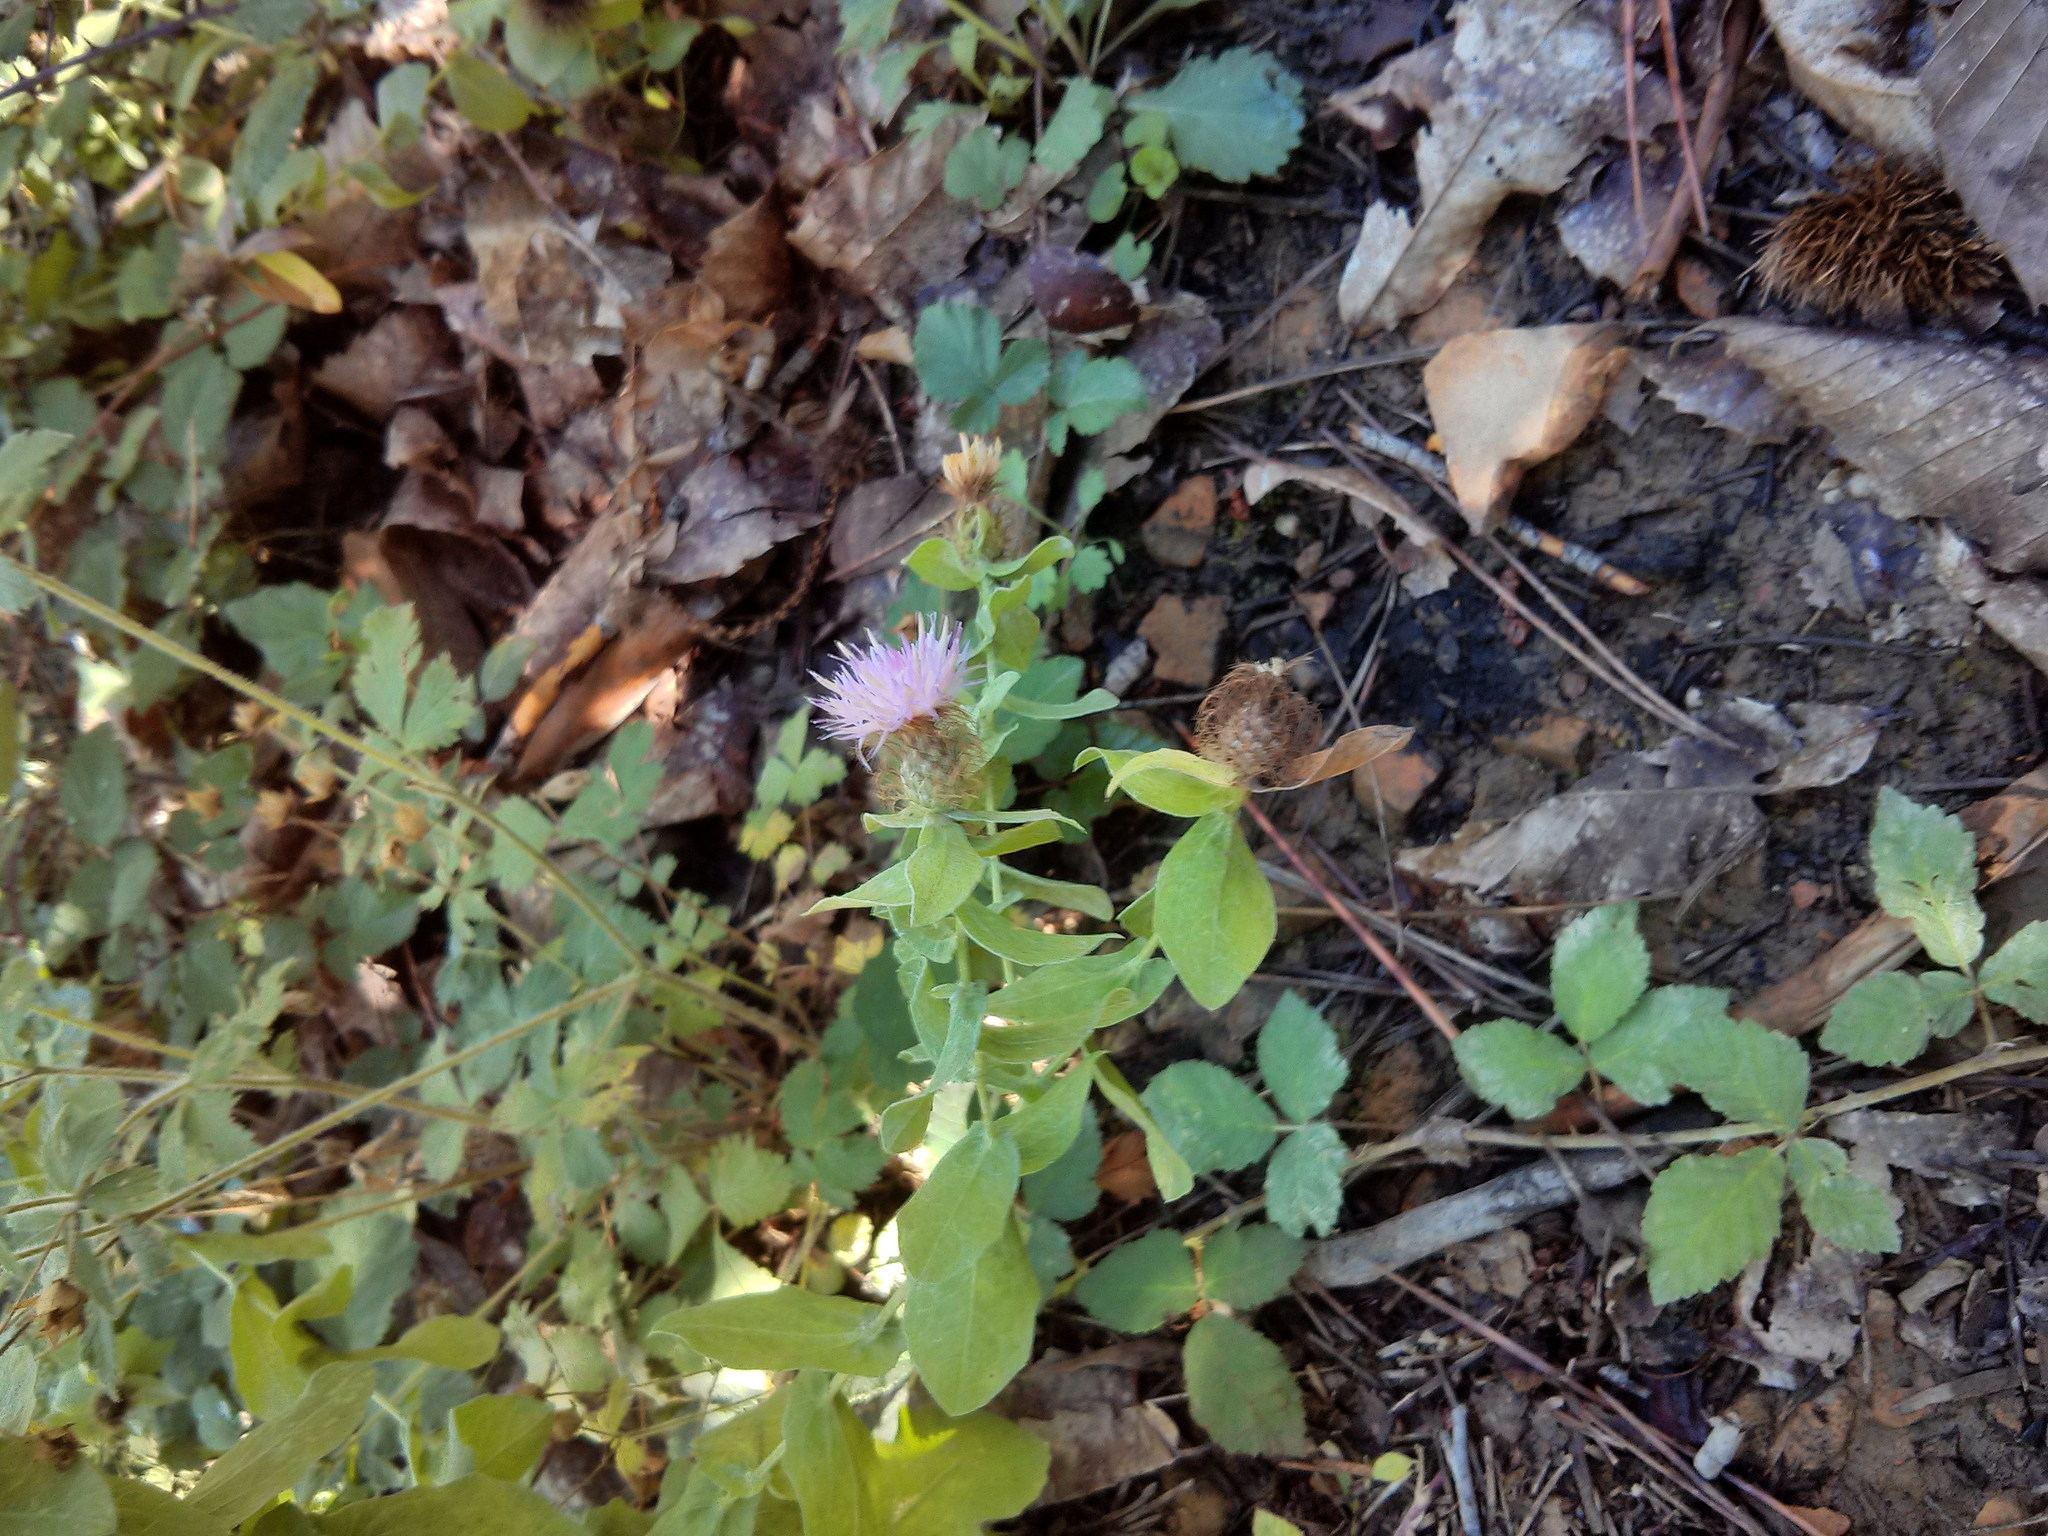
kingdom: Plantae
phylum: Tracheophyta
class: Magnoliopsida
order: Asterales
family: Asteraceae
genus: Centaurea
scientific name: Centaurea pectinata
